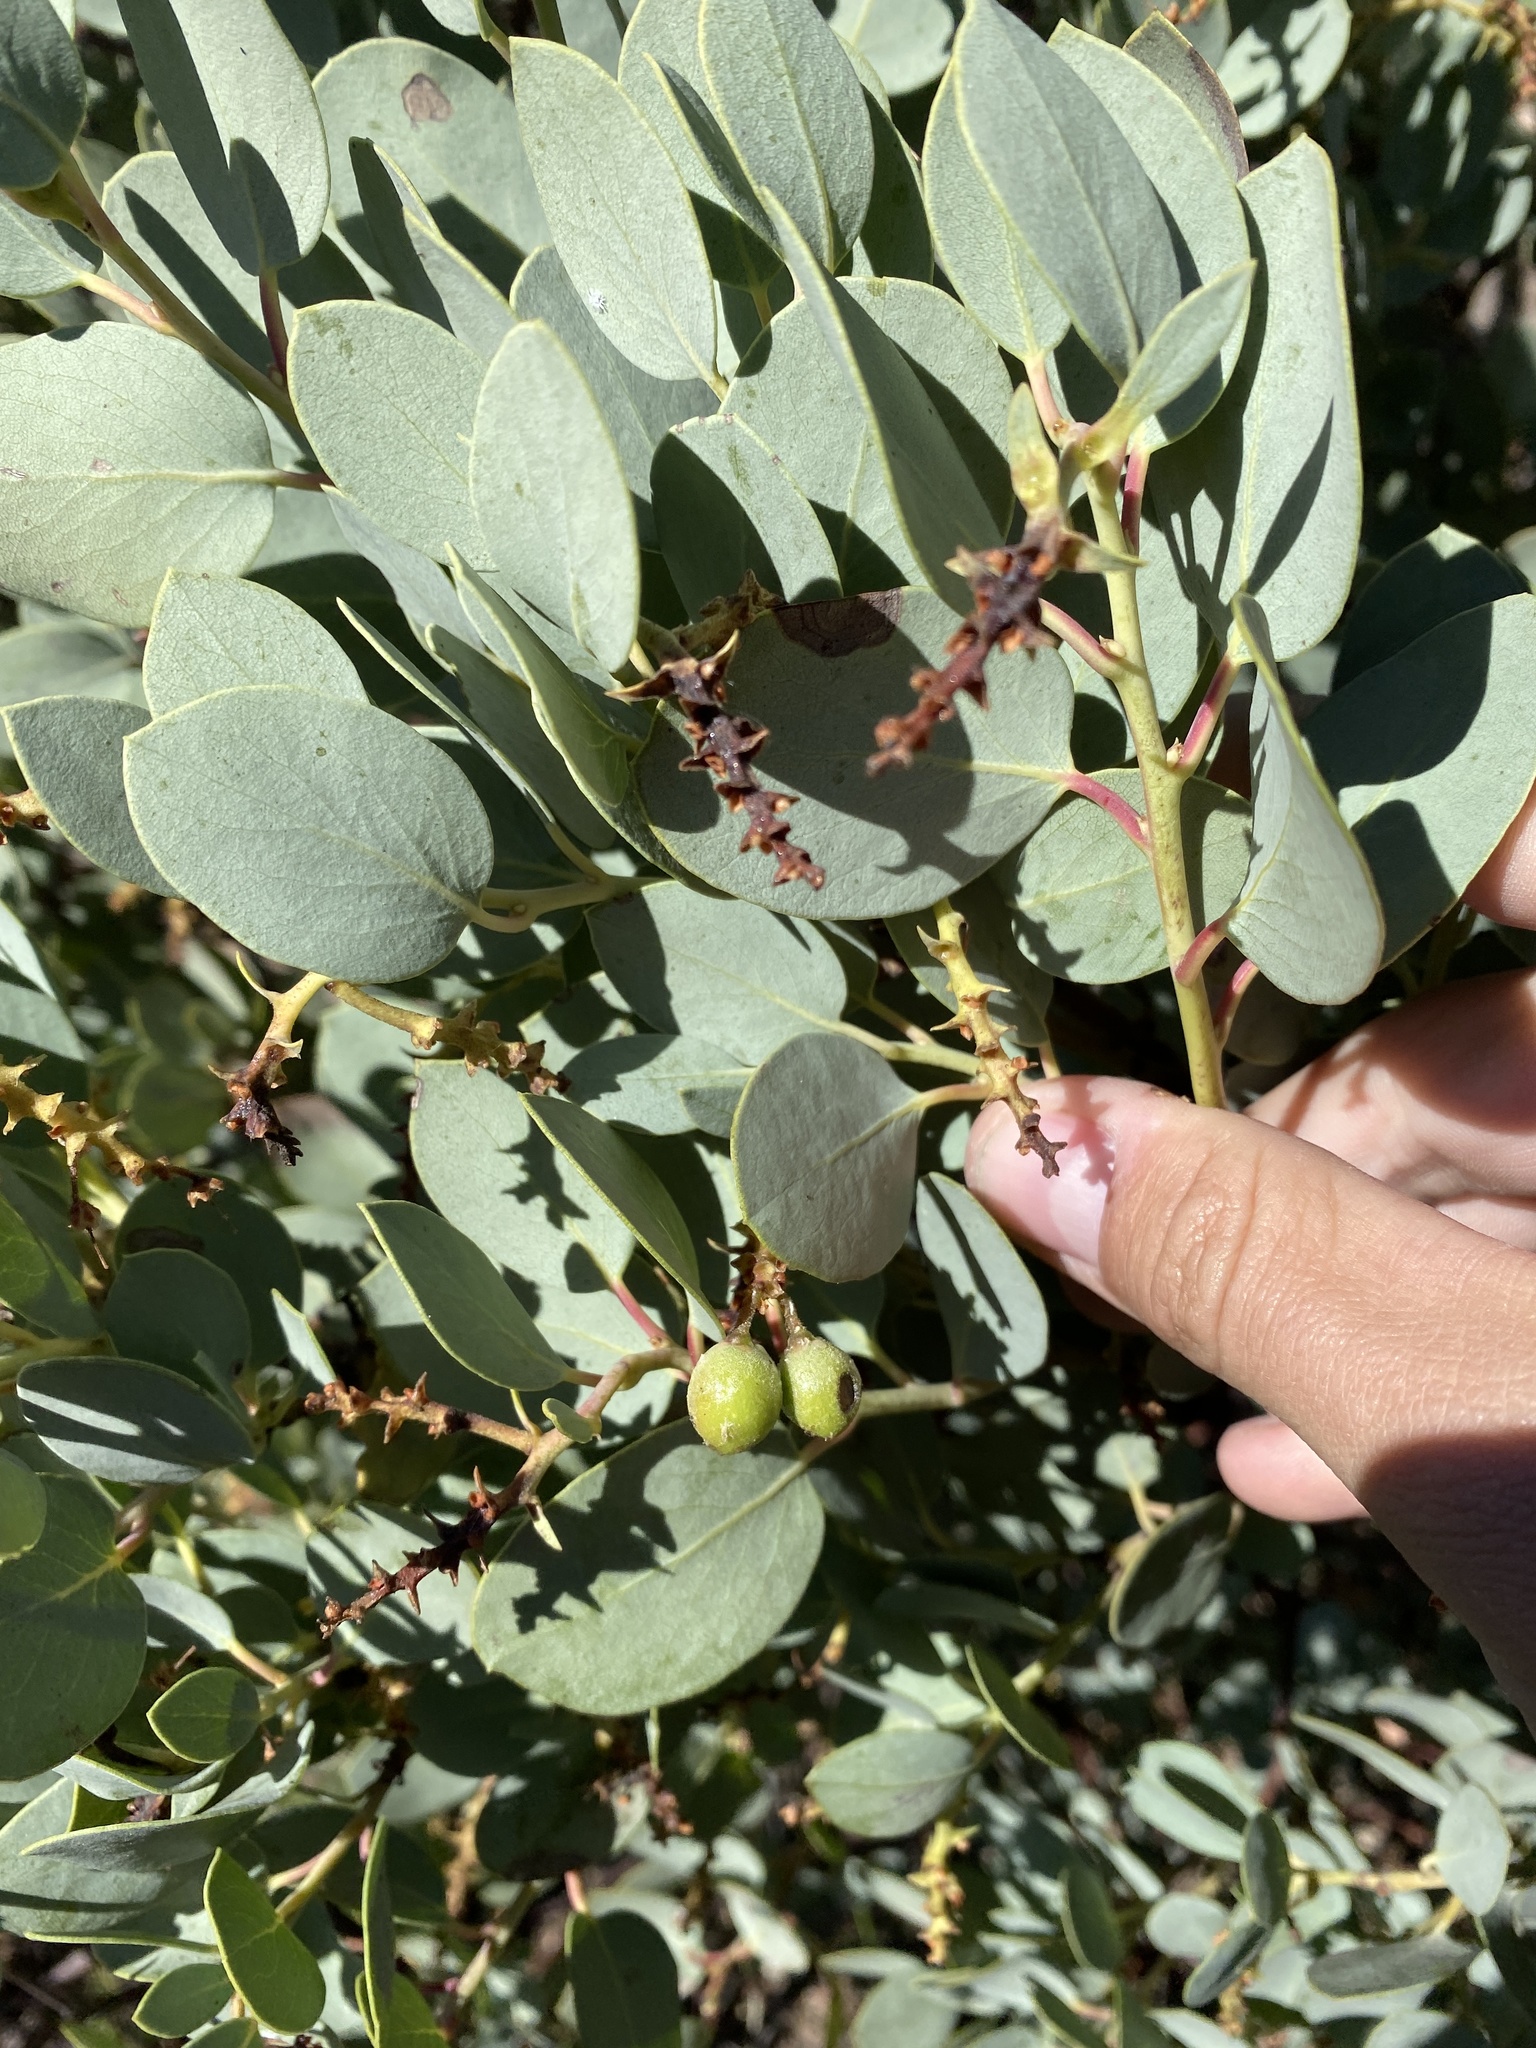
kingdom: Plantae
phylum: Tracheophyta
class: Magnoliopsida
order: Ericales
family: Ericaceae
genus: Arctostaphylos
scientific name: Arctostaphylos glauca
